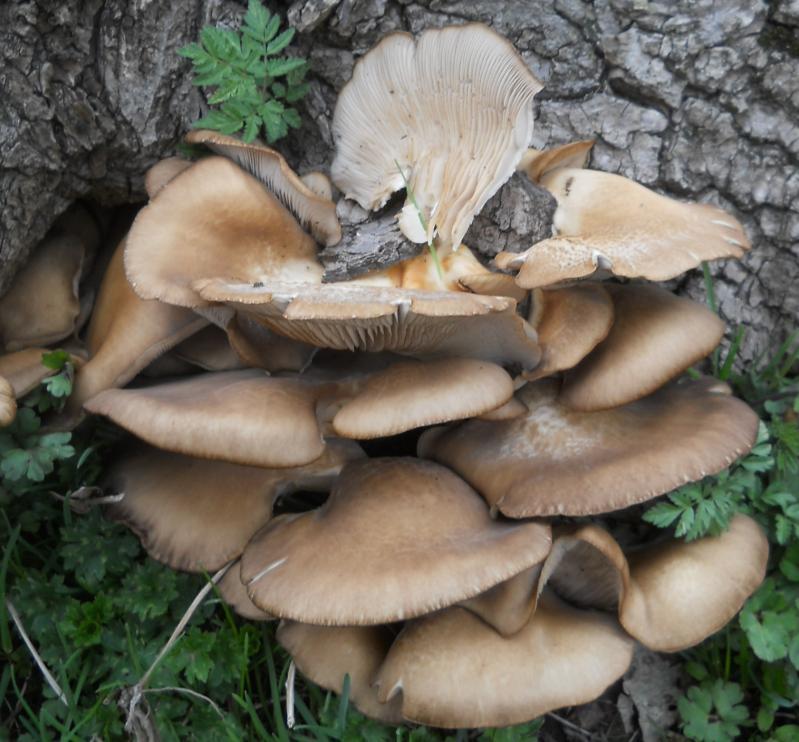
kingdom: Fungi
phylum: Basidiomycota
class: Agaricomycetes
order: Agaricales
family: Pleurotaceae
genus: Pleurotus
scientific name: Pleurotus ostreatus
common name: Oyster mushroom
